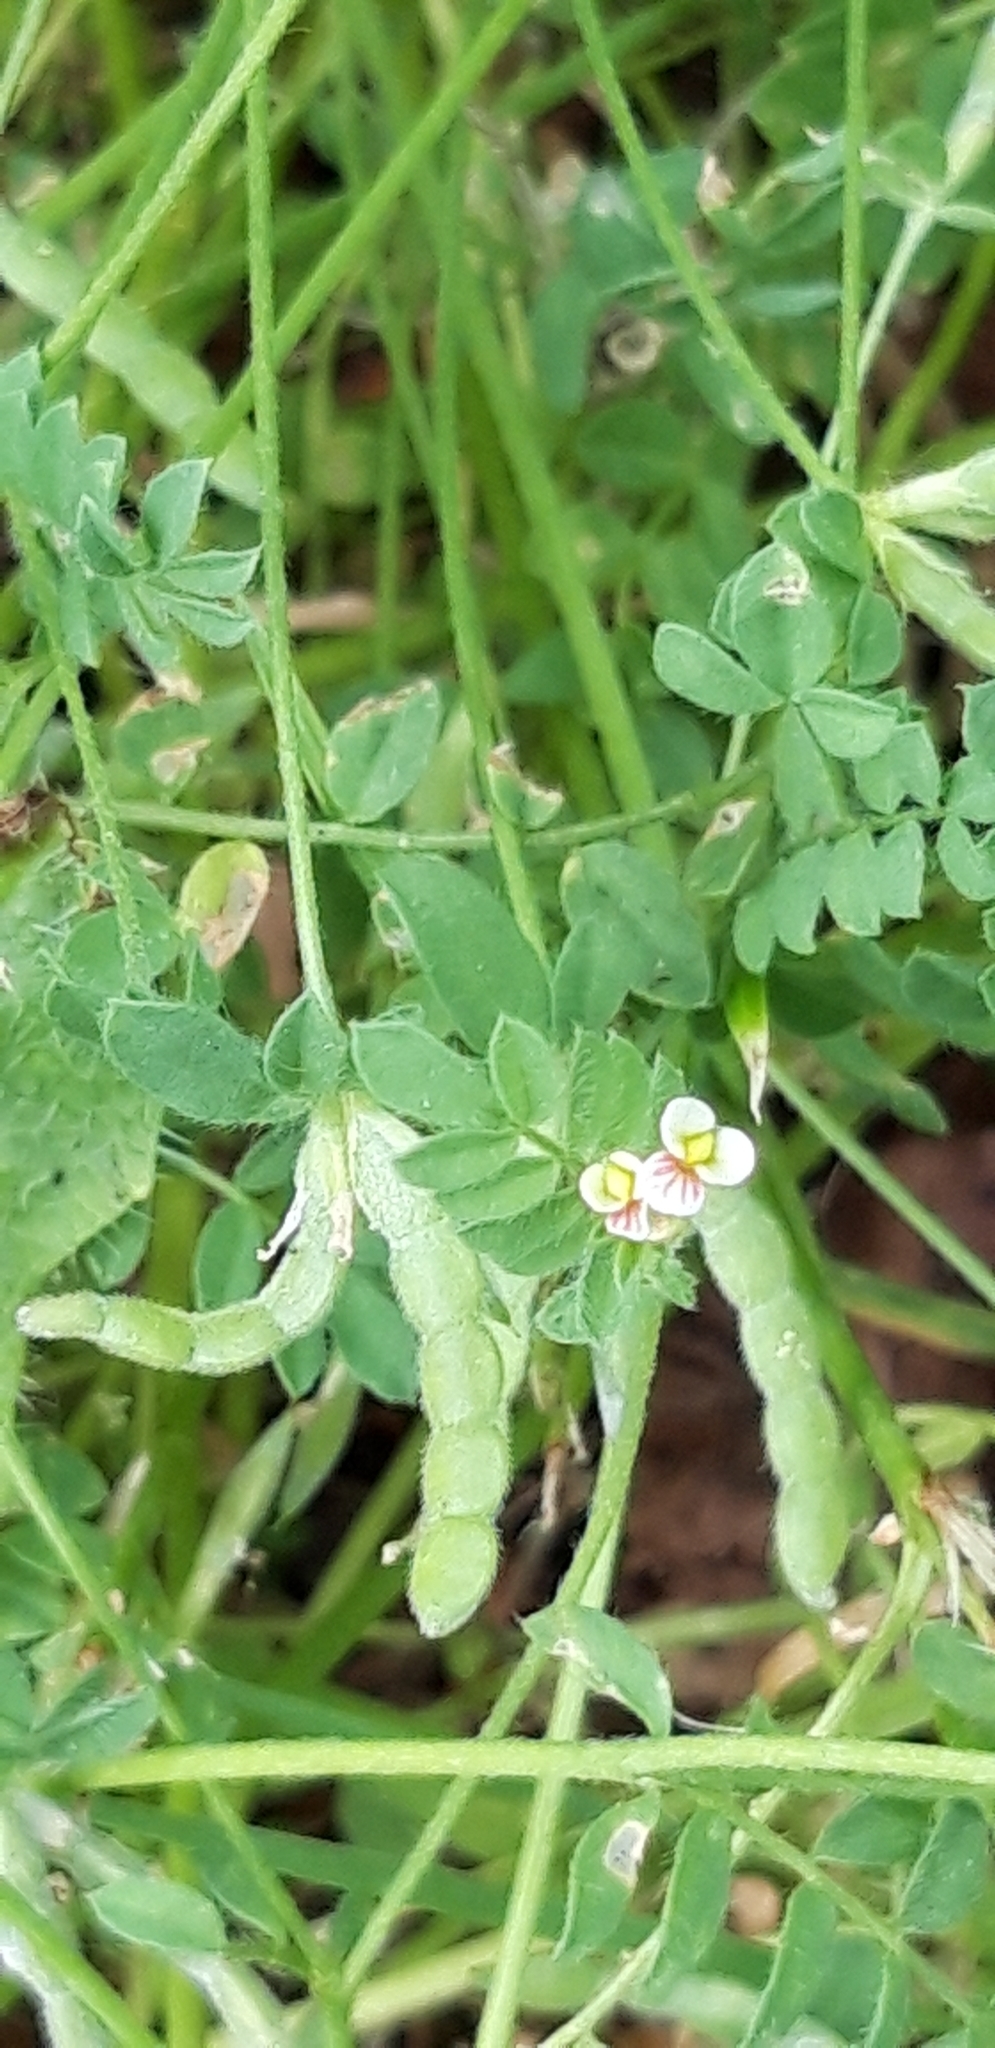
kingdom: Plantae
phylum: Tracheophyta
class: Magnoliopsida
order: Fabales
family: Fabaceae
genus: Ornithopus
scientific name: Ornithopus perpusillus
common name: Bird's-foot
